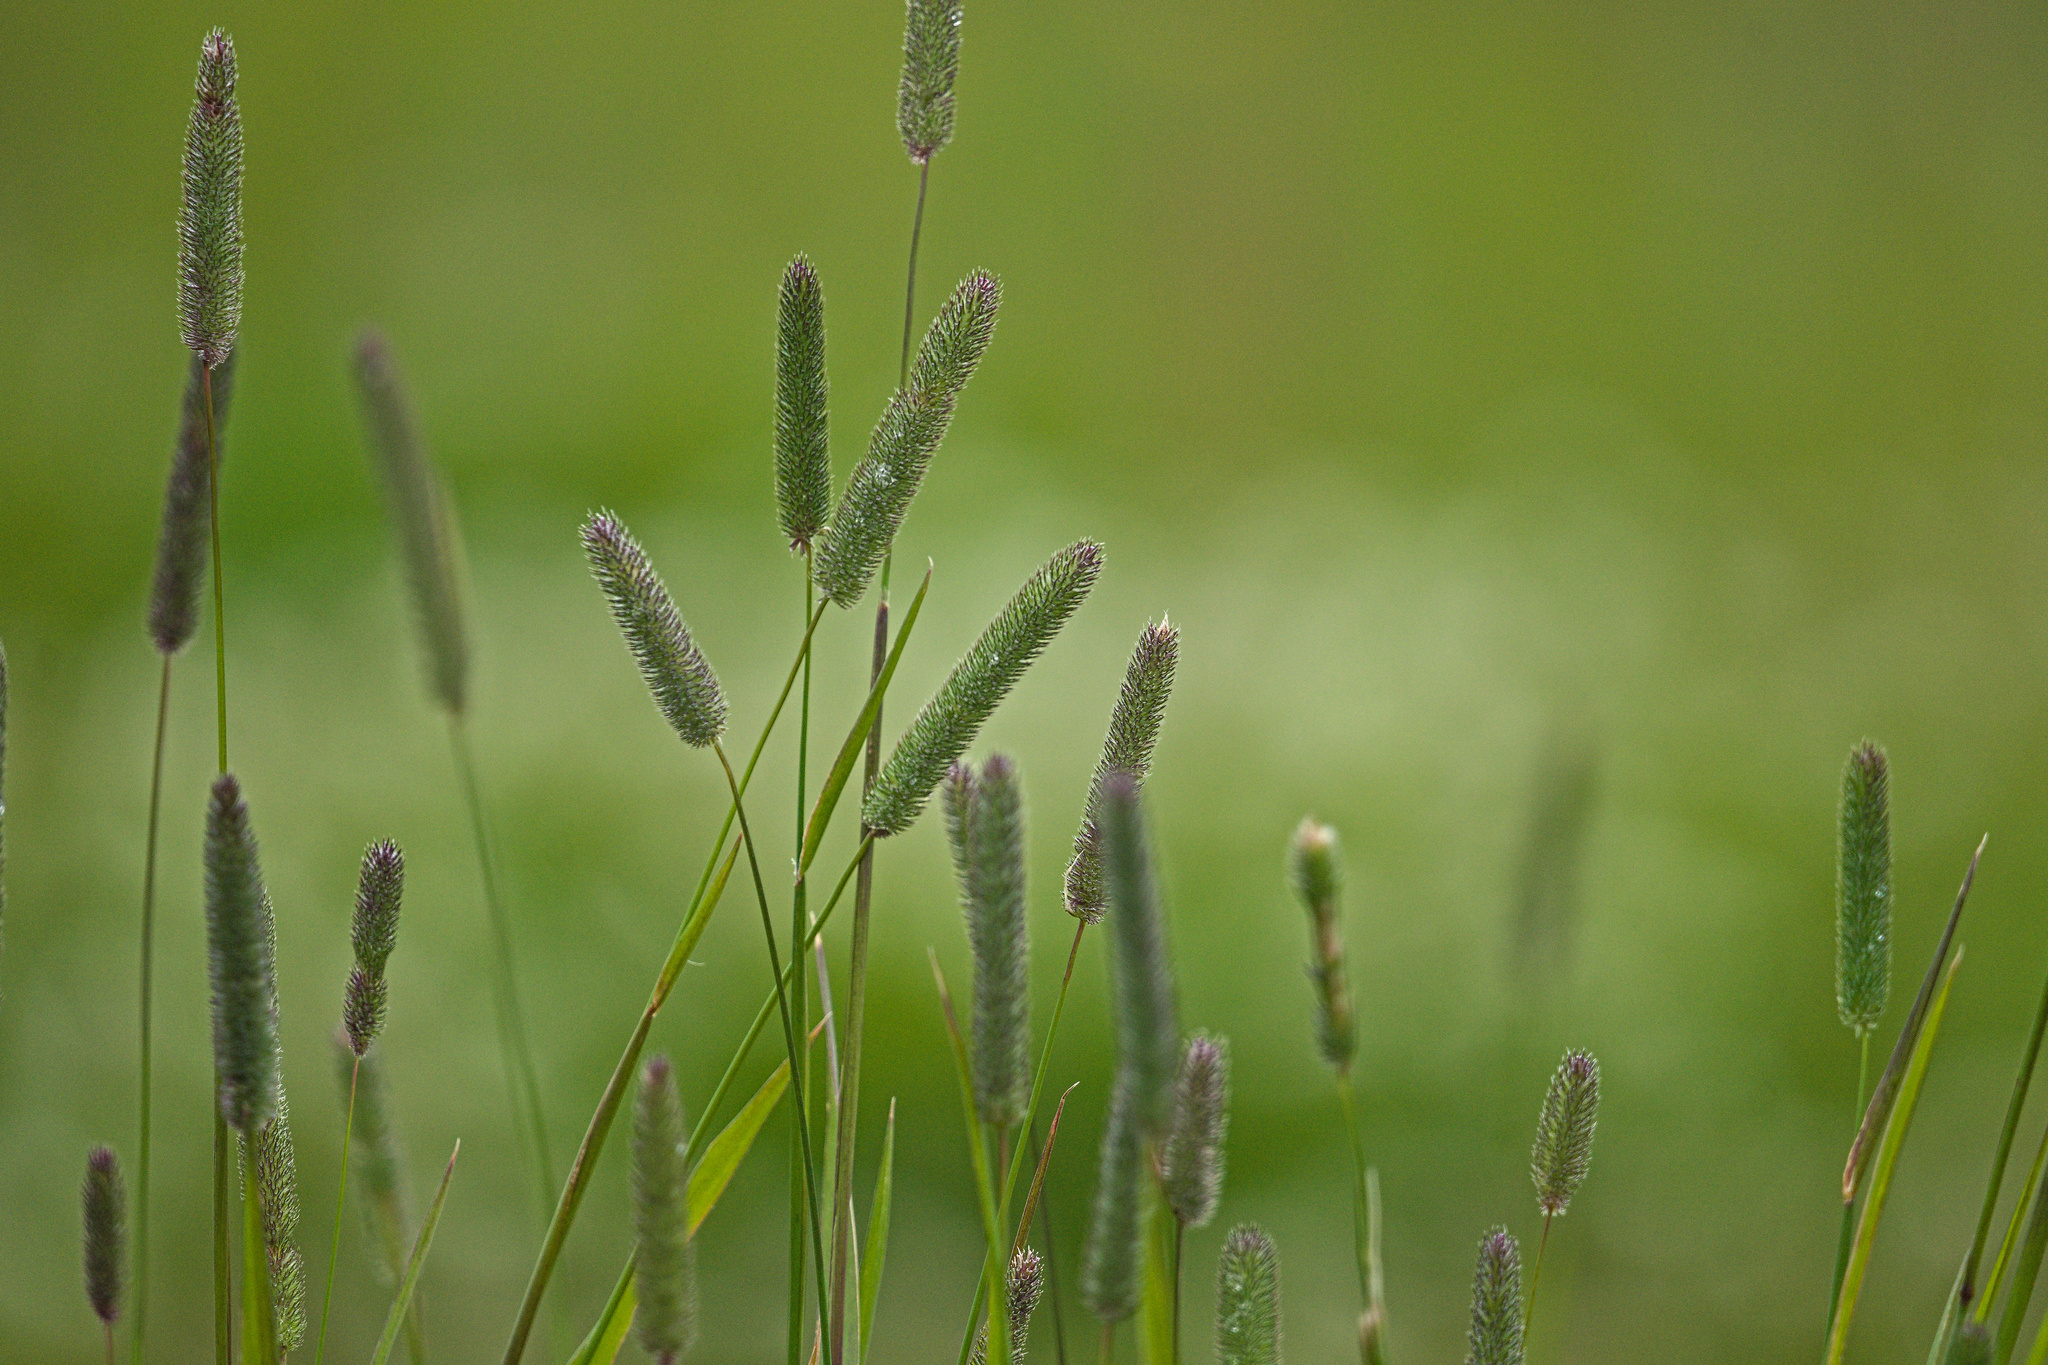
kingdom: Plantae
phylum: Tracheophyta
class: Liliopsida
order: Poales
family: Poaceae
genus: Phleum
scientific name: Phleum pratense
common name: Timothy grass
